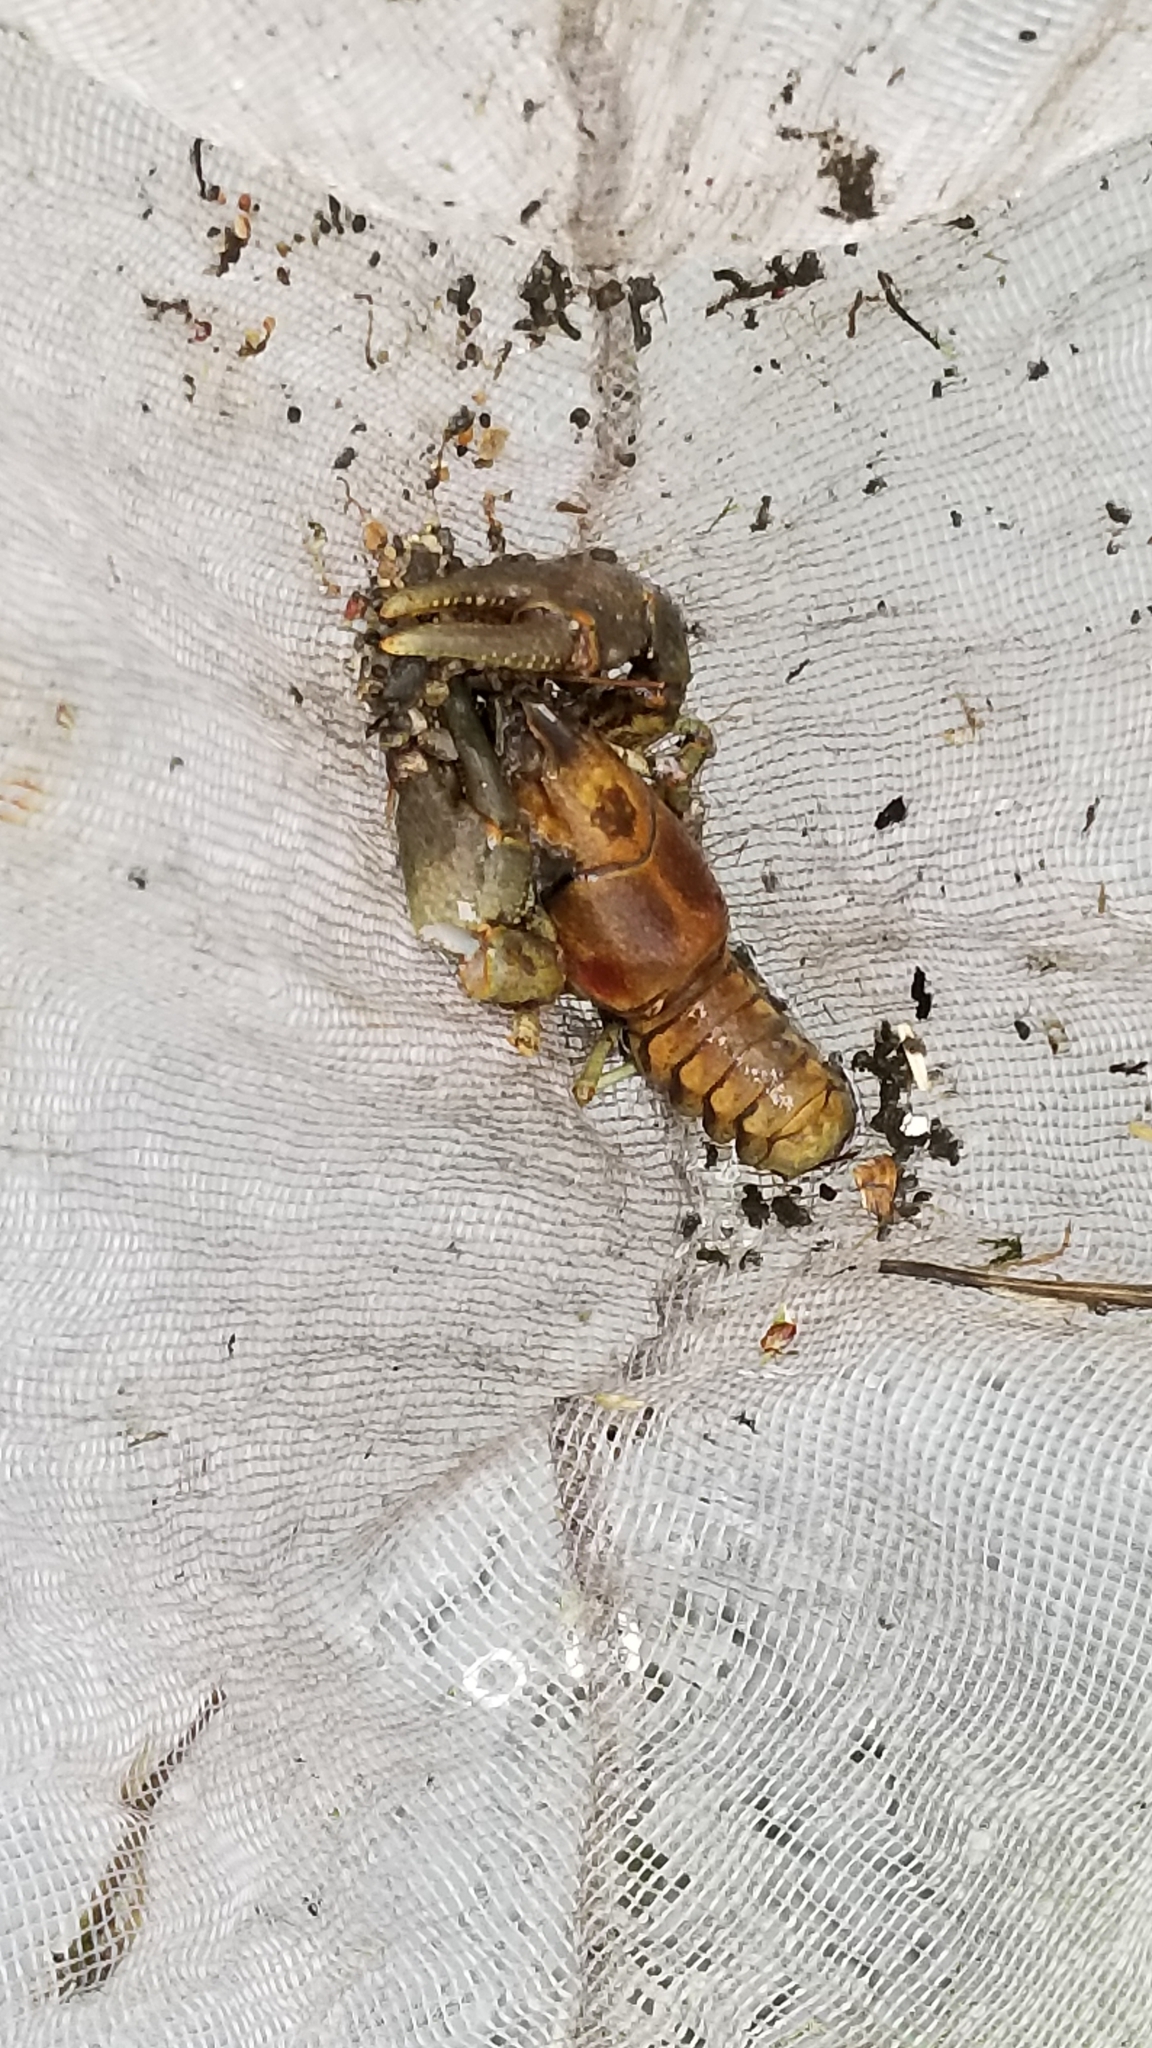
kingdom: Animalia
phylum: Arthropoda
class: Malacostraca
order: Decapoda
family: Cambaridae
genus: Faxonius
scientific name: Faxonius rusticus
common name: Rusty crayfish
